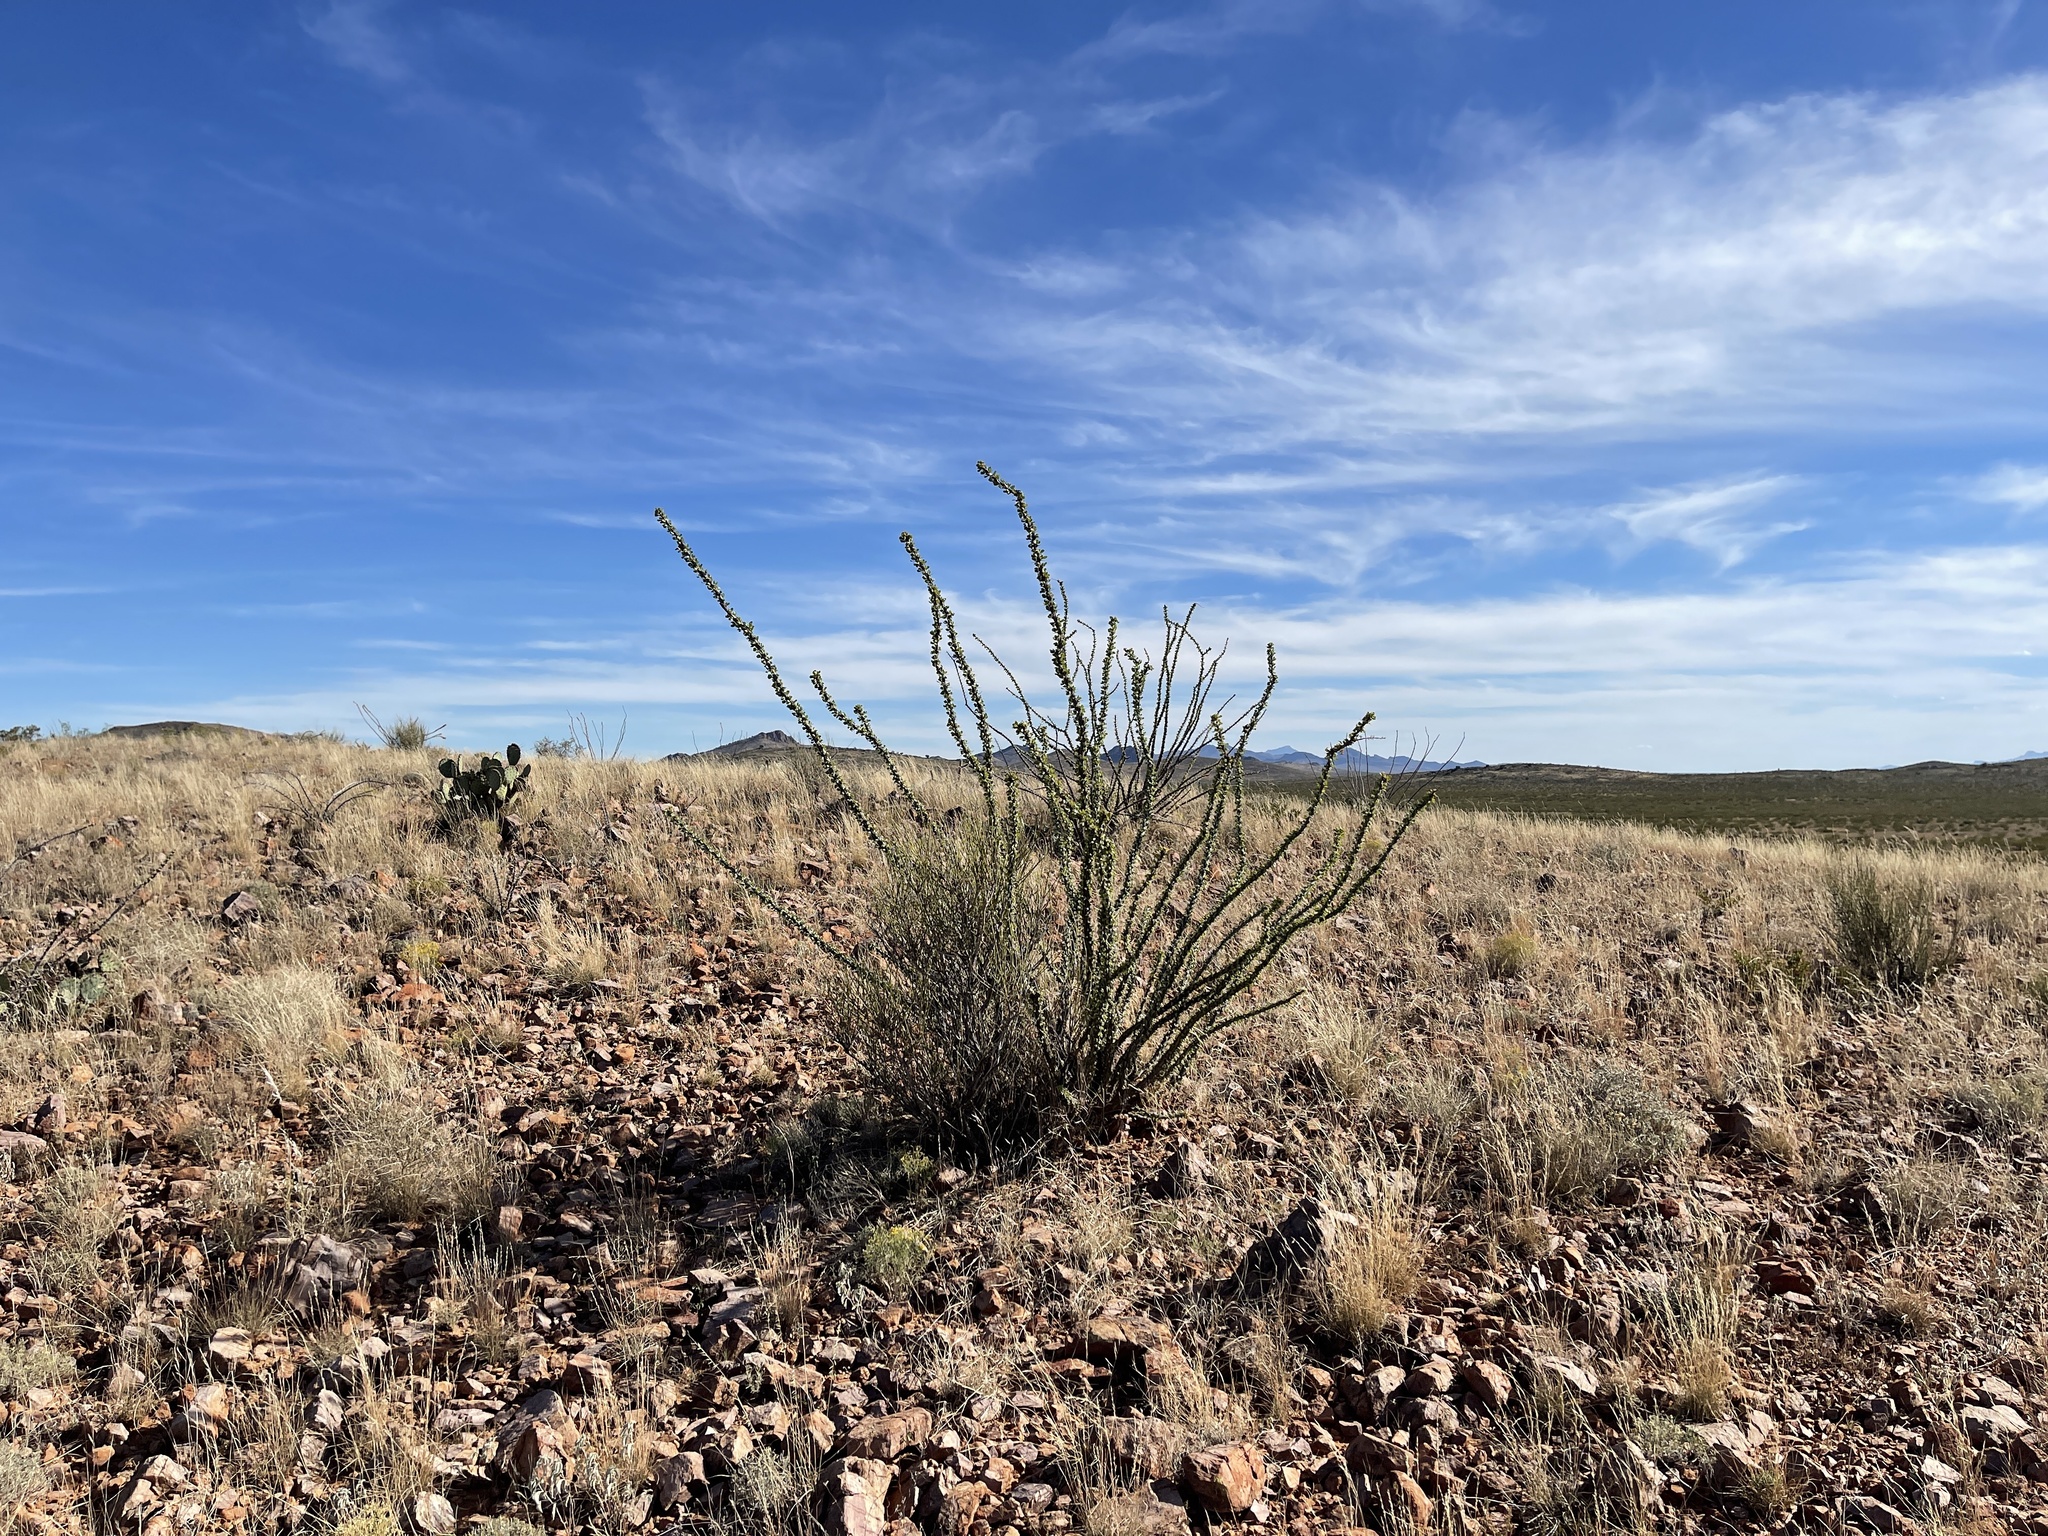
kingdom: Plantae
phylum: Tracheophyta
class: Magnoliopsida
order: Ericales
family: Fouquieriaceae
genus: Fouquieria
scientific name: Fouquieria splendens
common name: Vine-cactus
